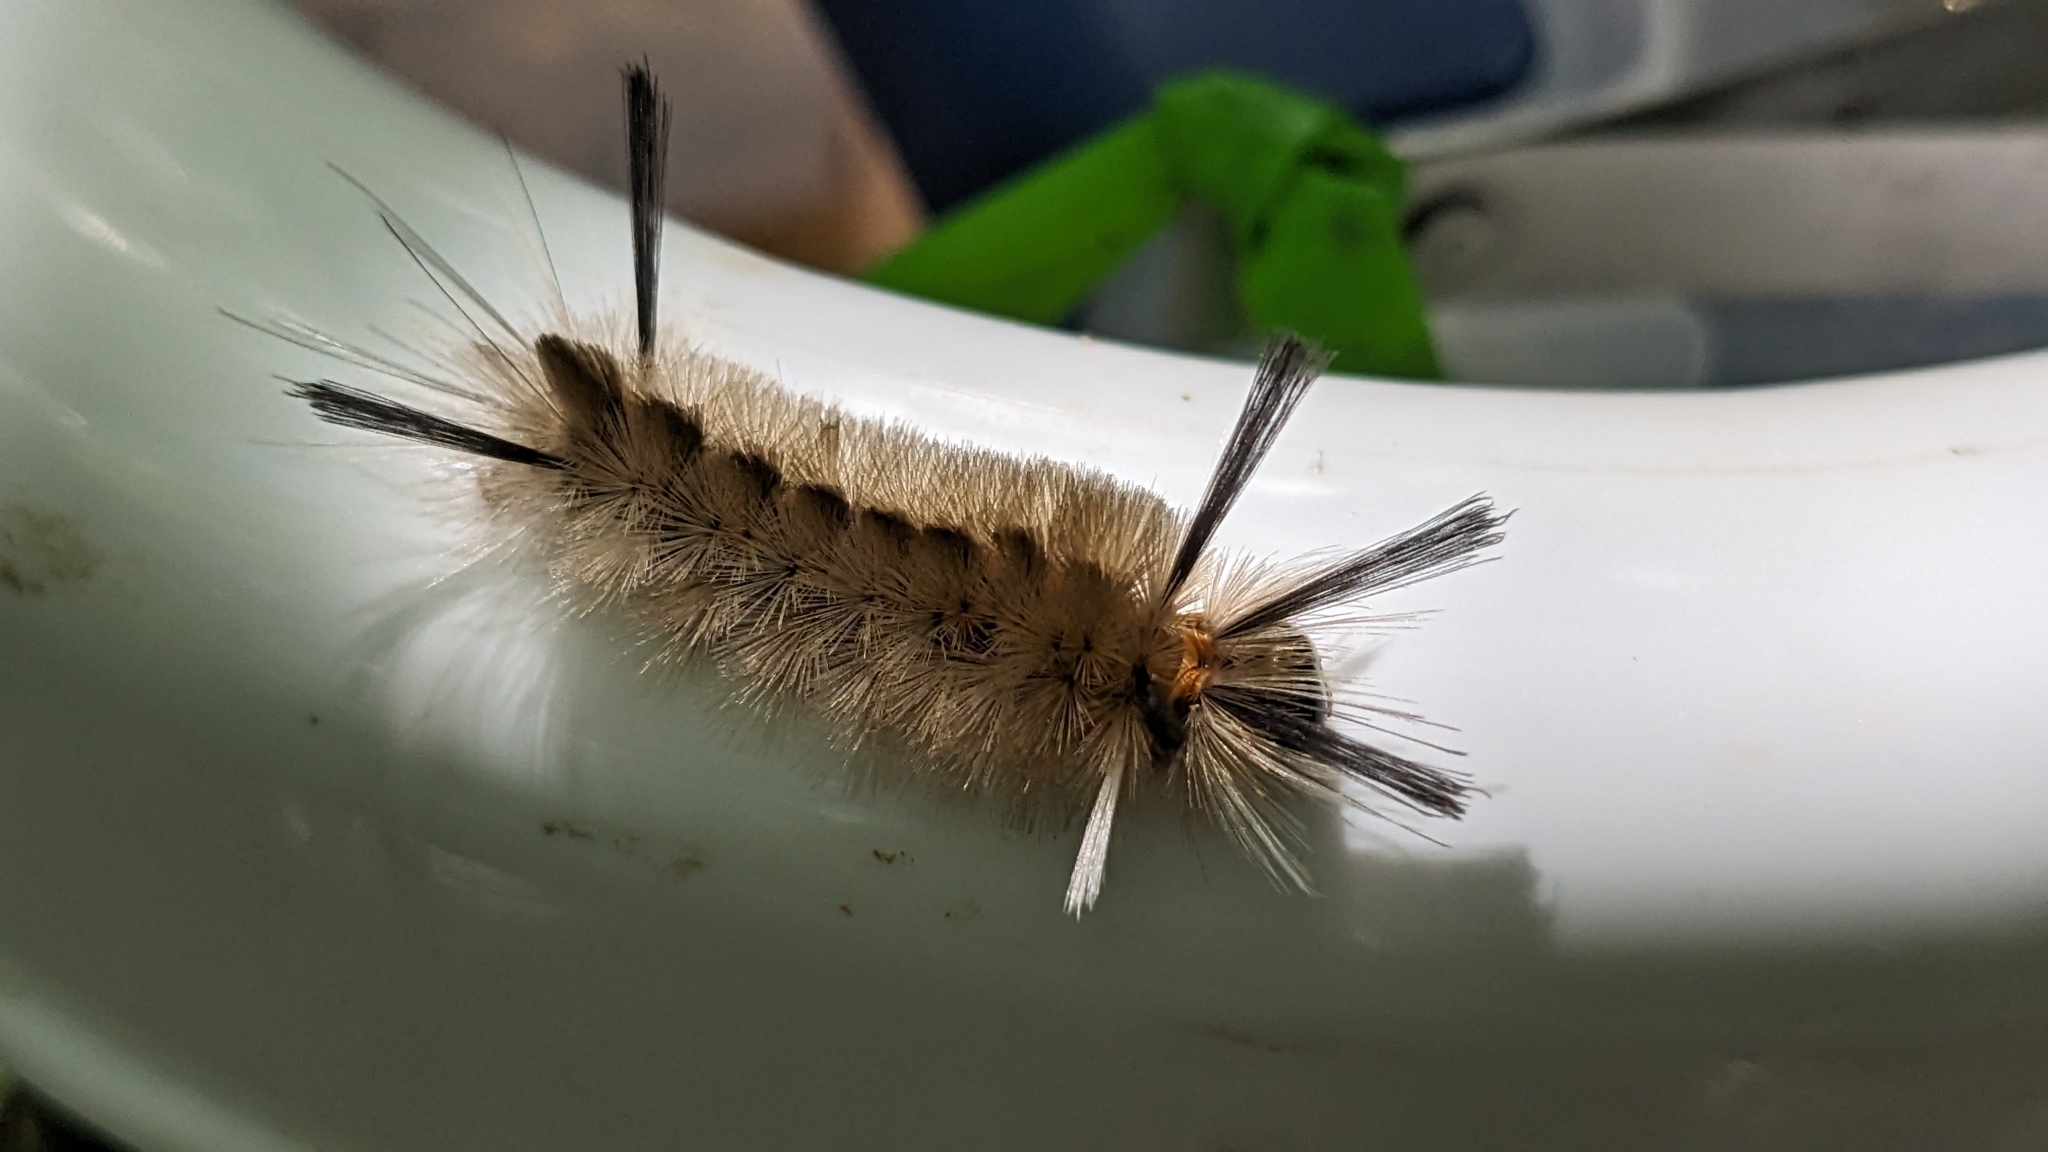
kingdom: Animalia
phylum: Arthropoda
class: Insecta
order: Lepidoptera
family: Erebidae
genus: Halysidota
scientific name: Halysidota tessellaris
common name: Banded tussock moth
